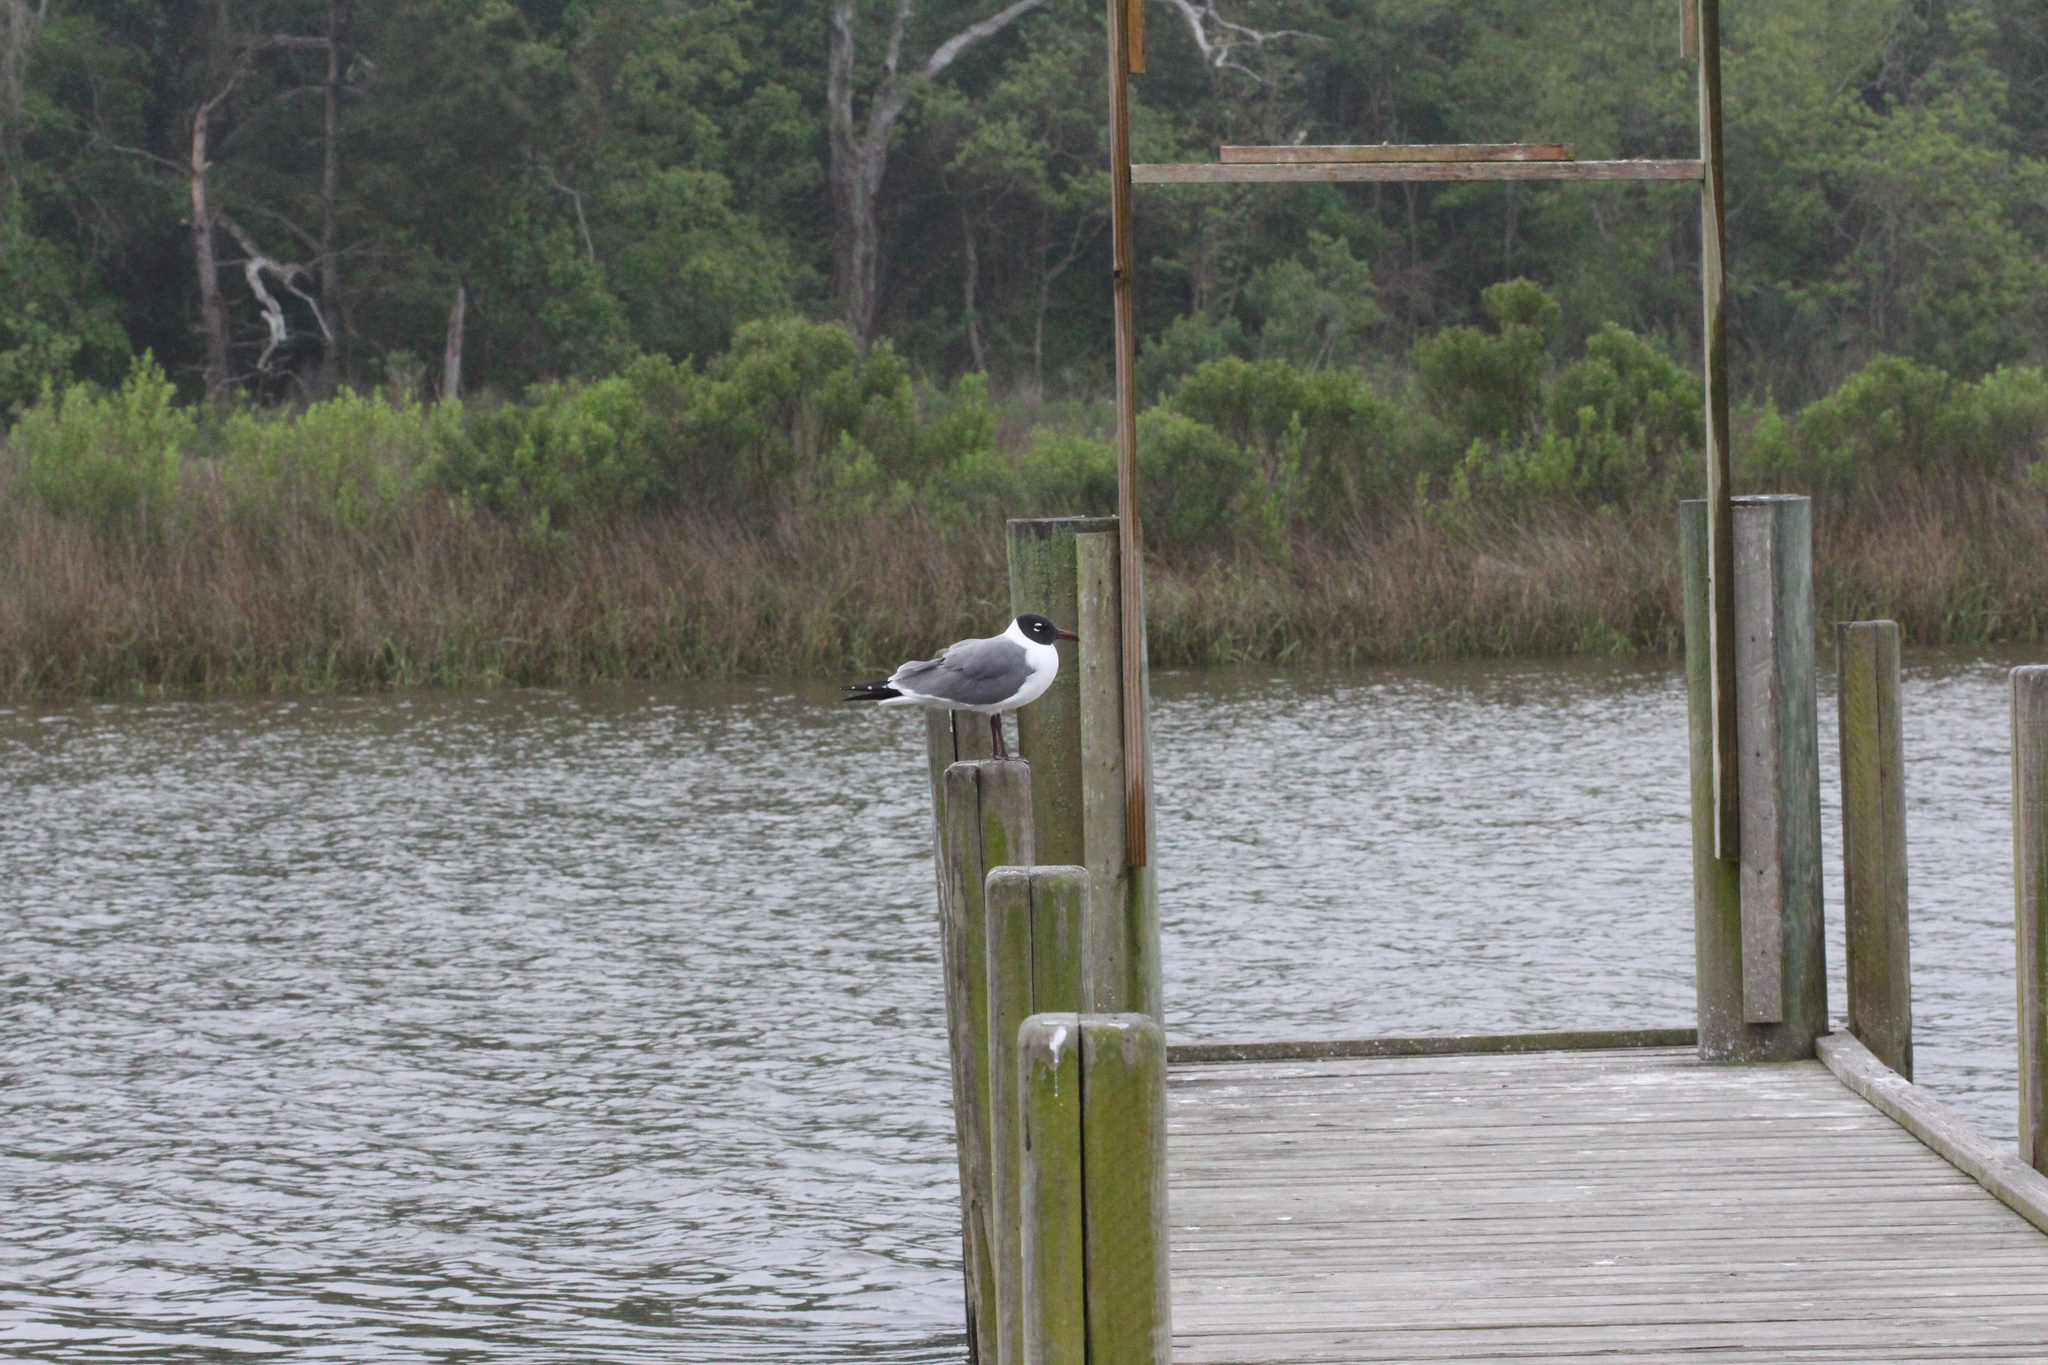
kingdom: Animalia
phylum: Chordata
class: Aves
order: Charadriiformes
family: Laridae
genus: Leucophaeus
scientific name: Leucophaeus atricilla
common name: Laughing gull
